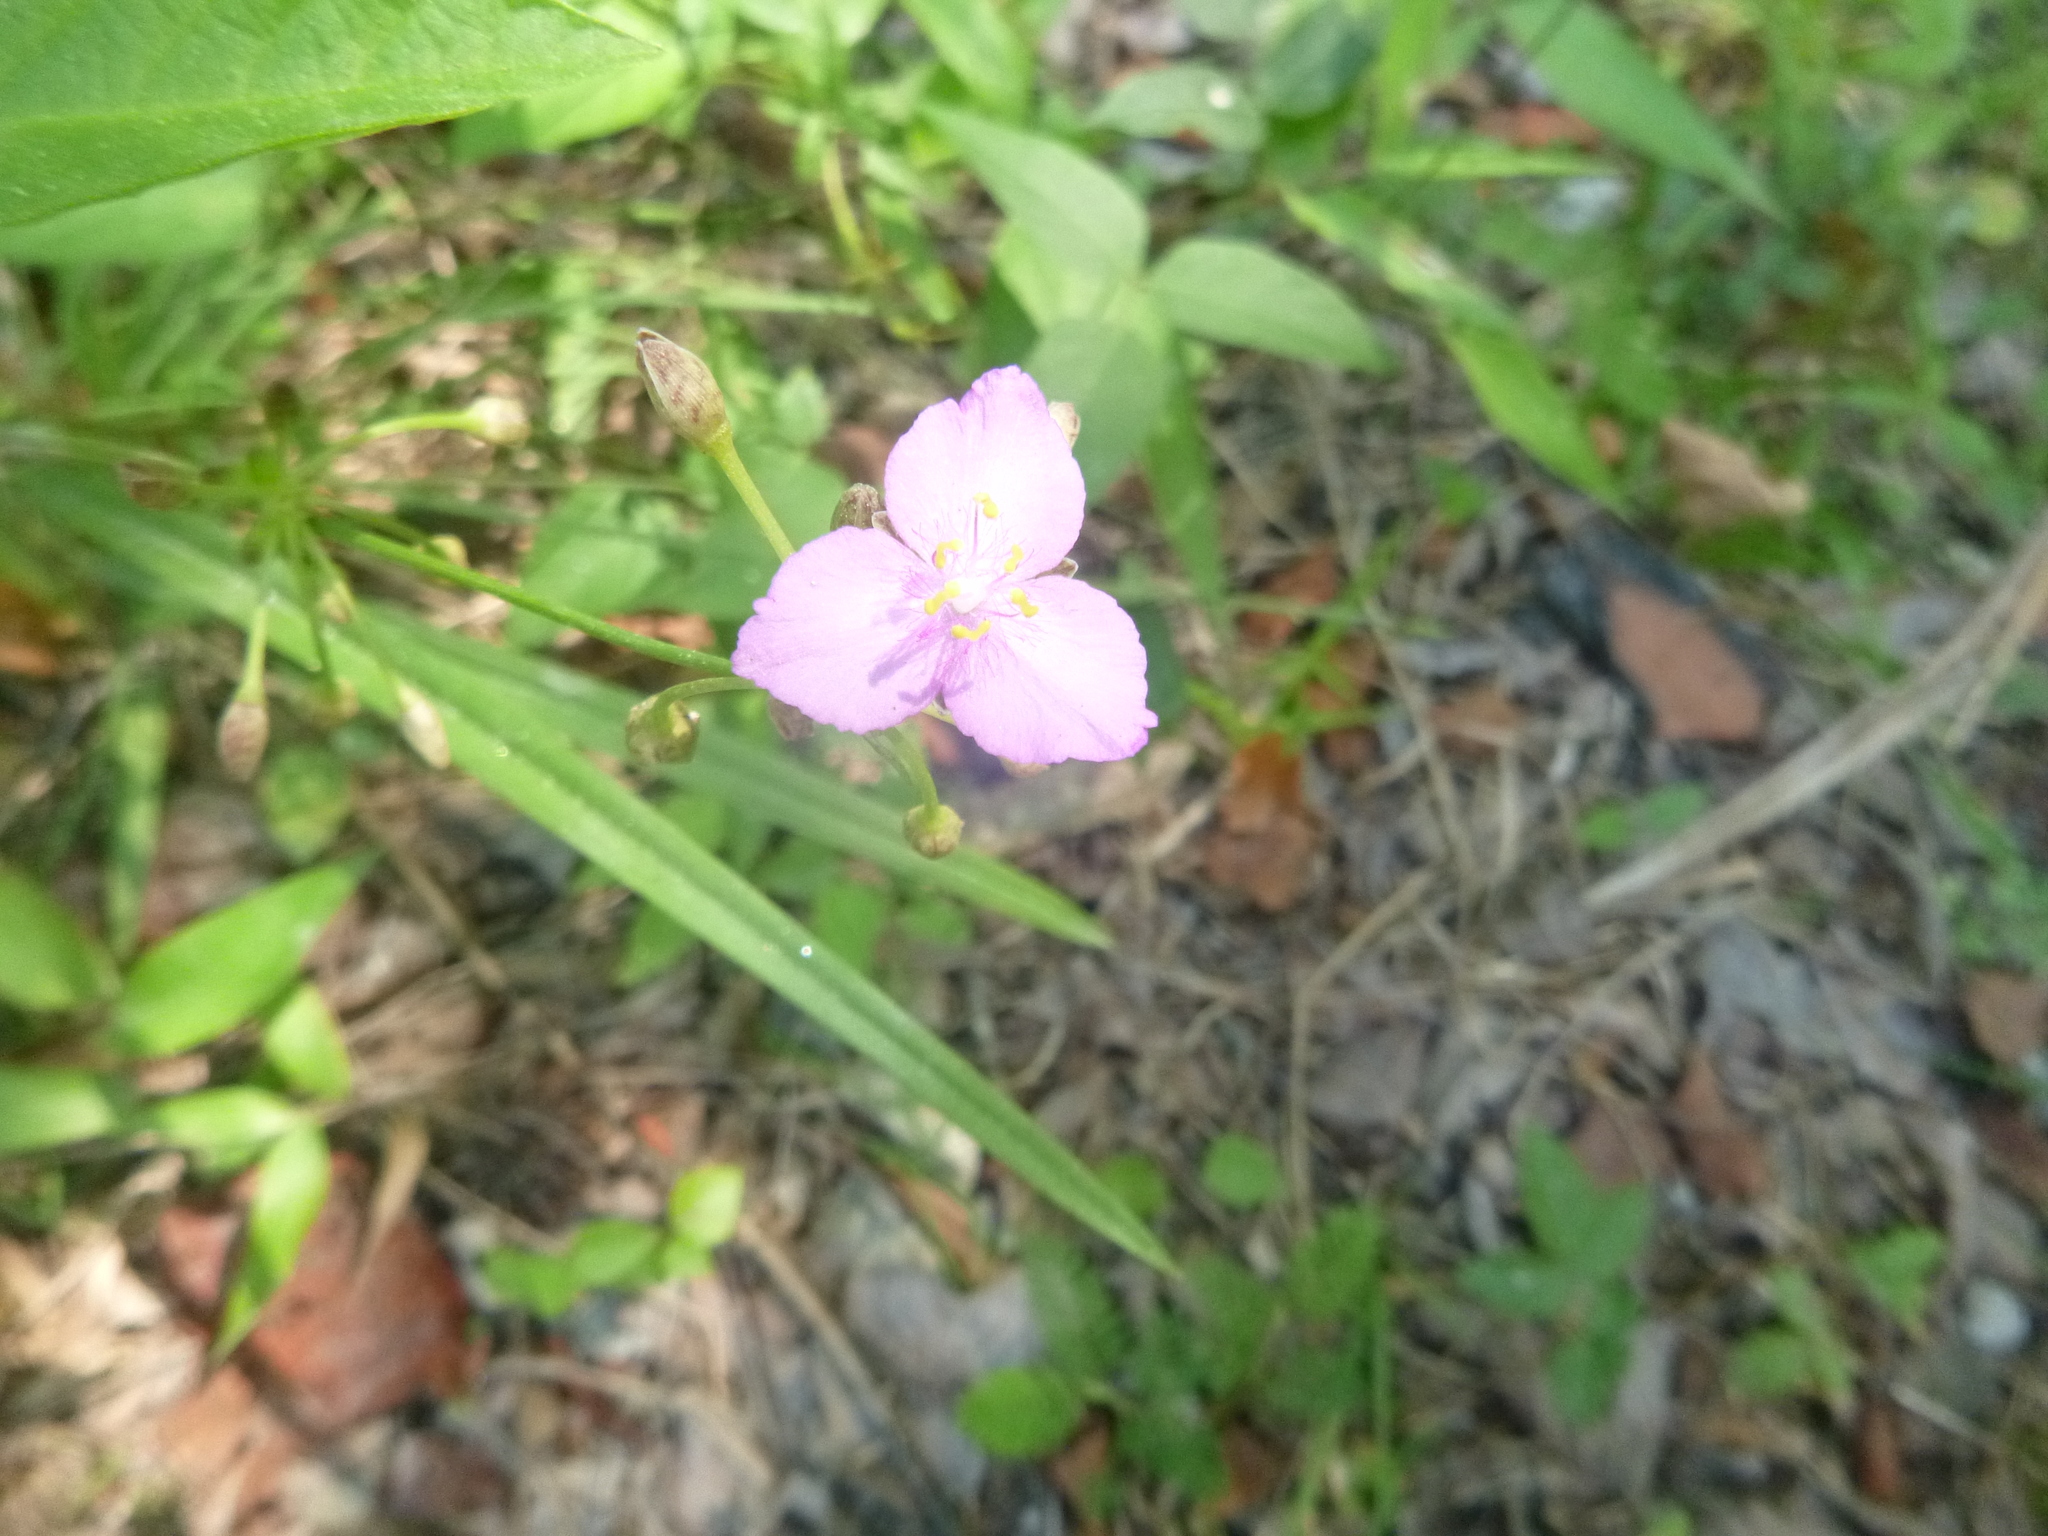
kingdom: Plantae
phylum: Tracheophyta
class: Liliopsida
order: Commelinales
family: Commelinaceae
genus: Callisia
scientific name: Callisia rosea
